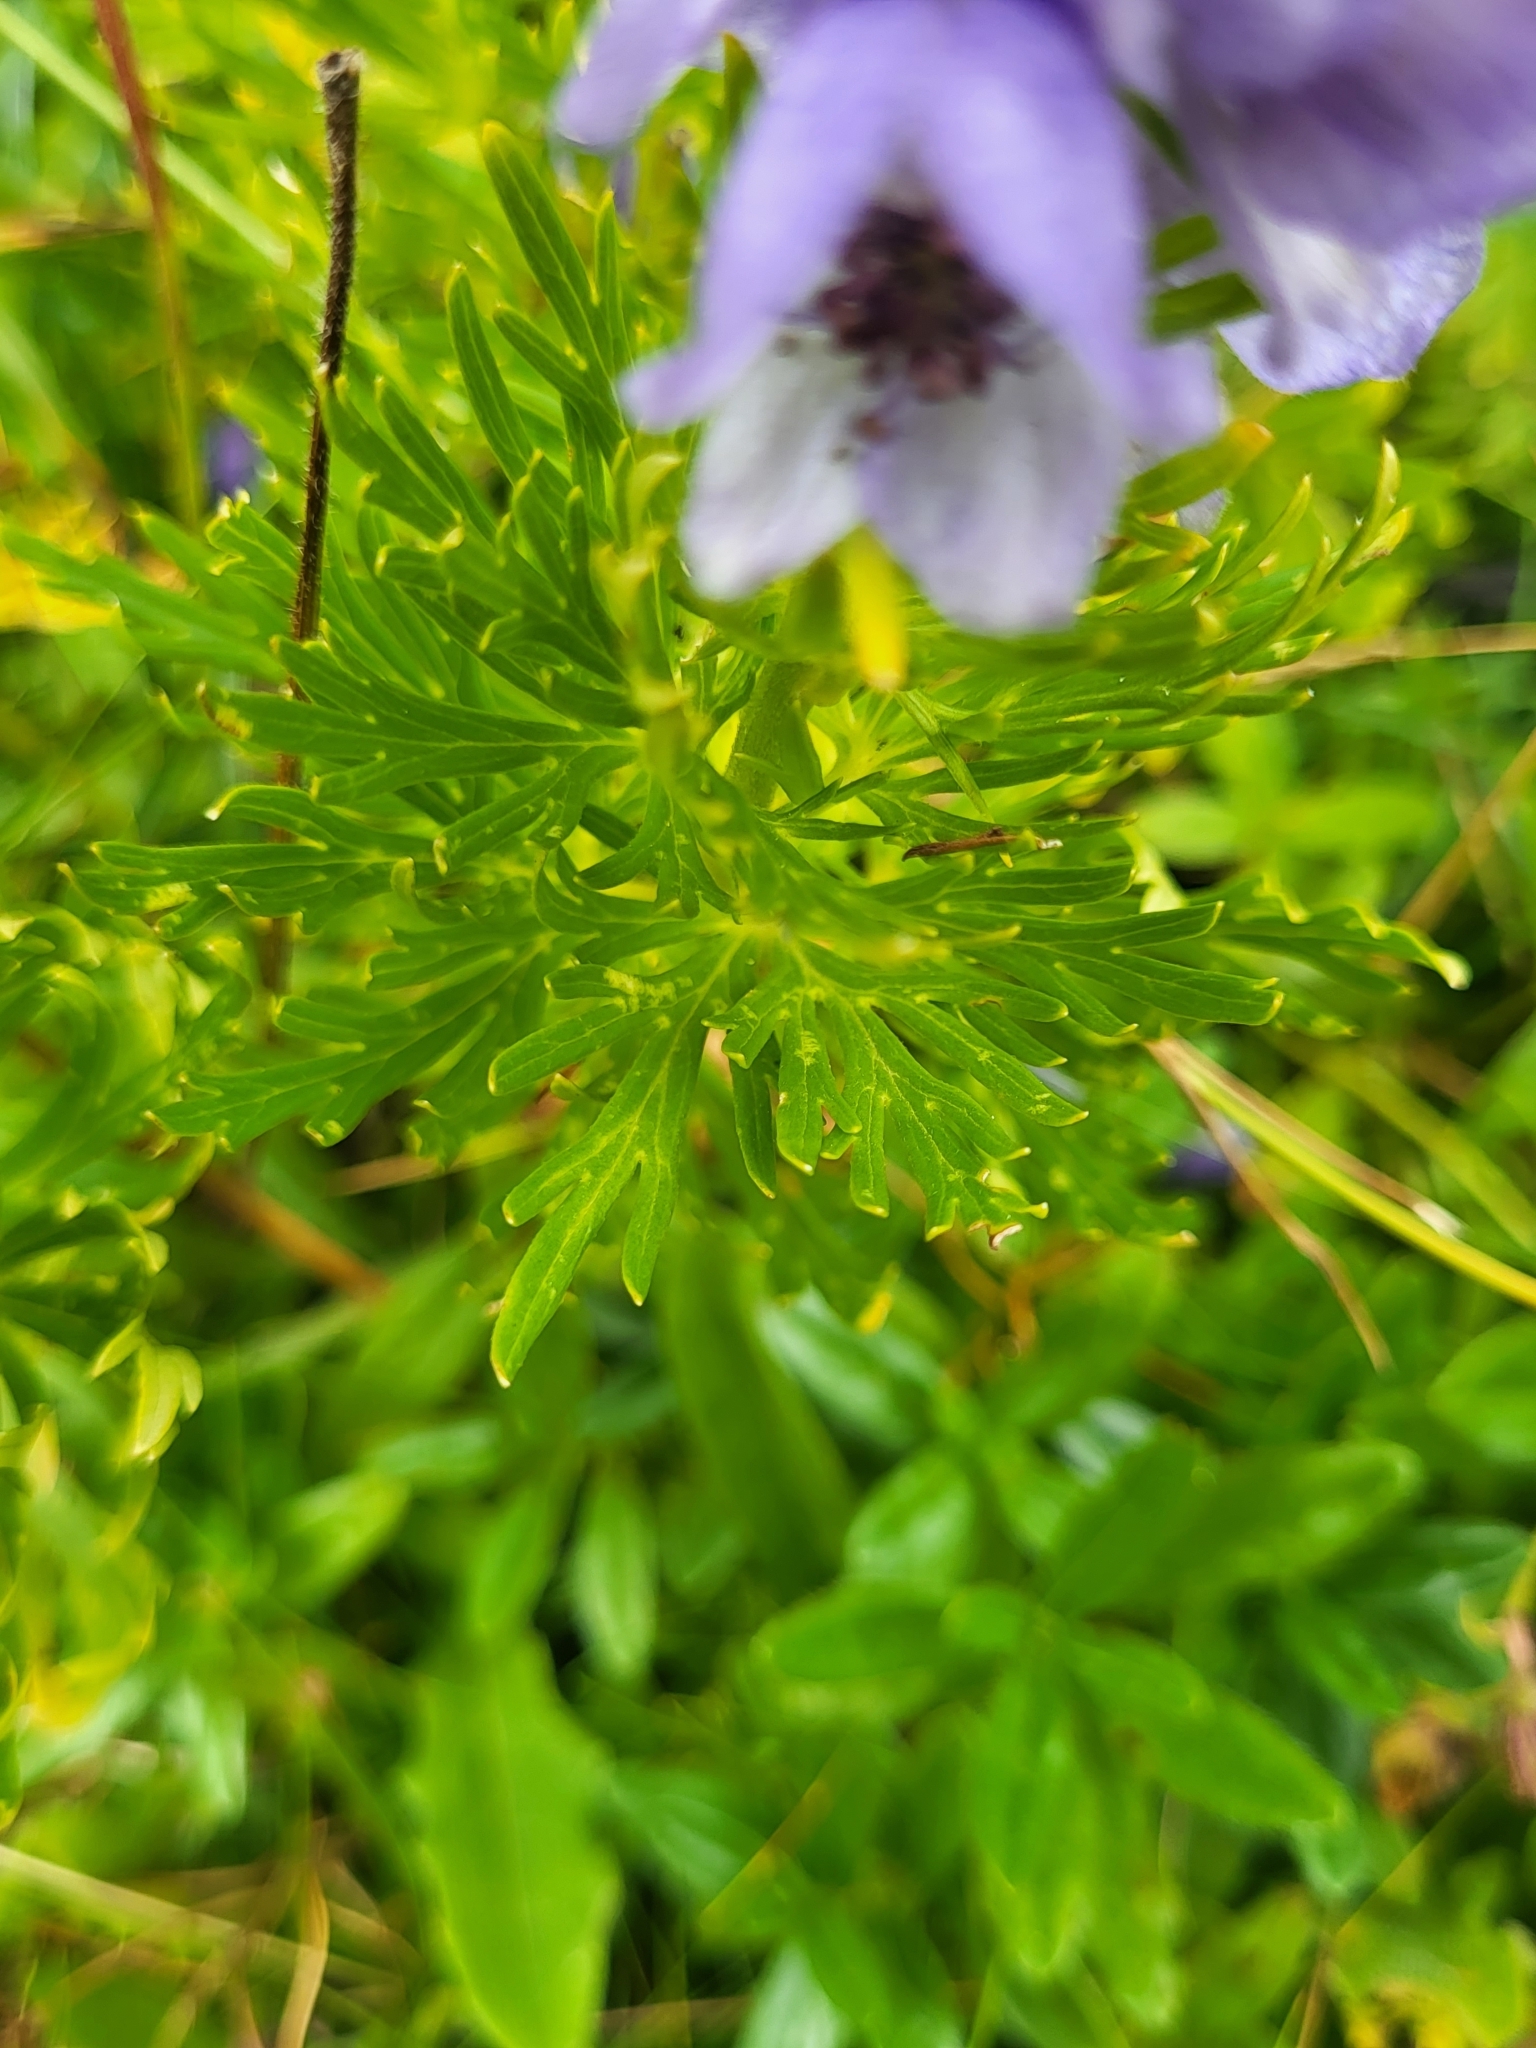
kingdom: Plantae
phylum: Tracheophyta
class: Magnoliopsida
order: Ranunculales
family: Ranunculaceae
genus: Aconitum
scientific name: Aconitum napellus
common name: Garden monkshood
